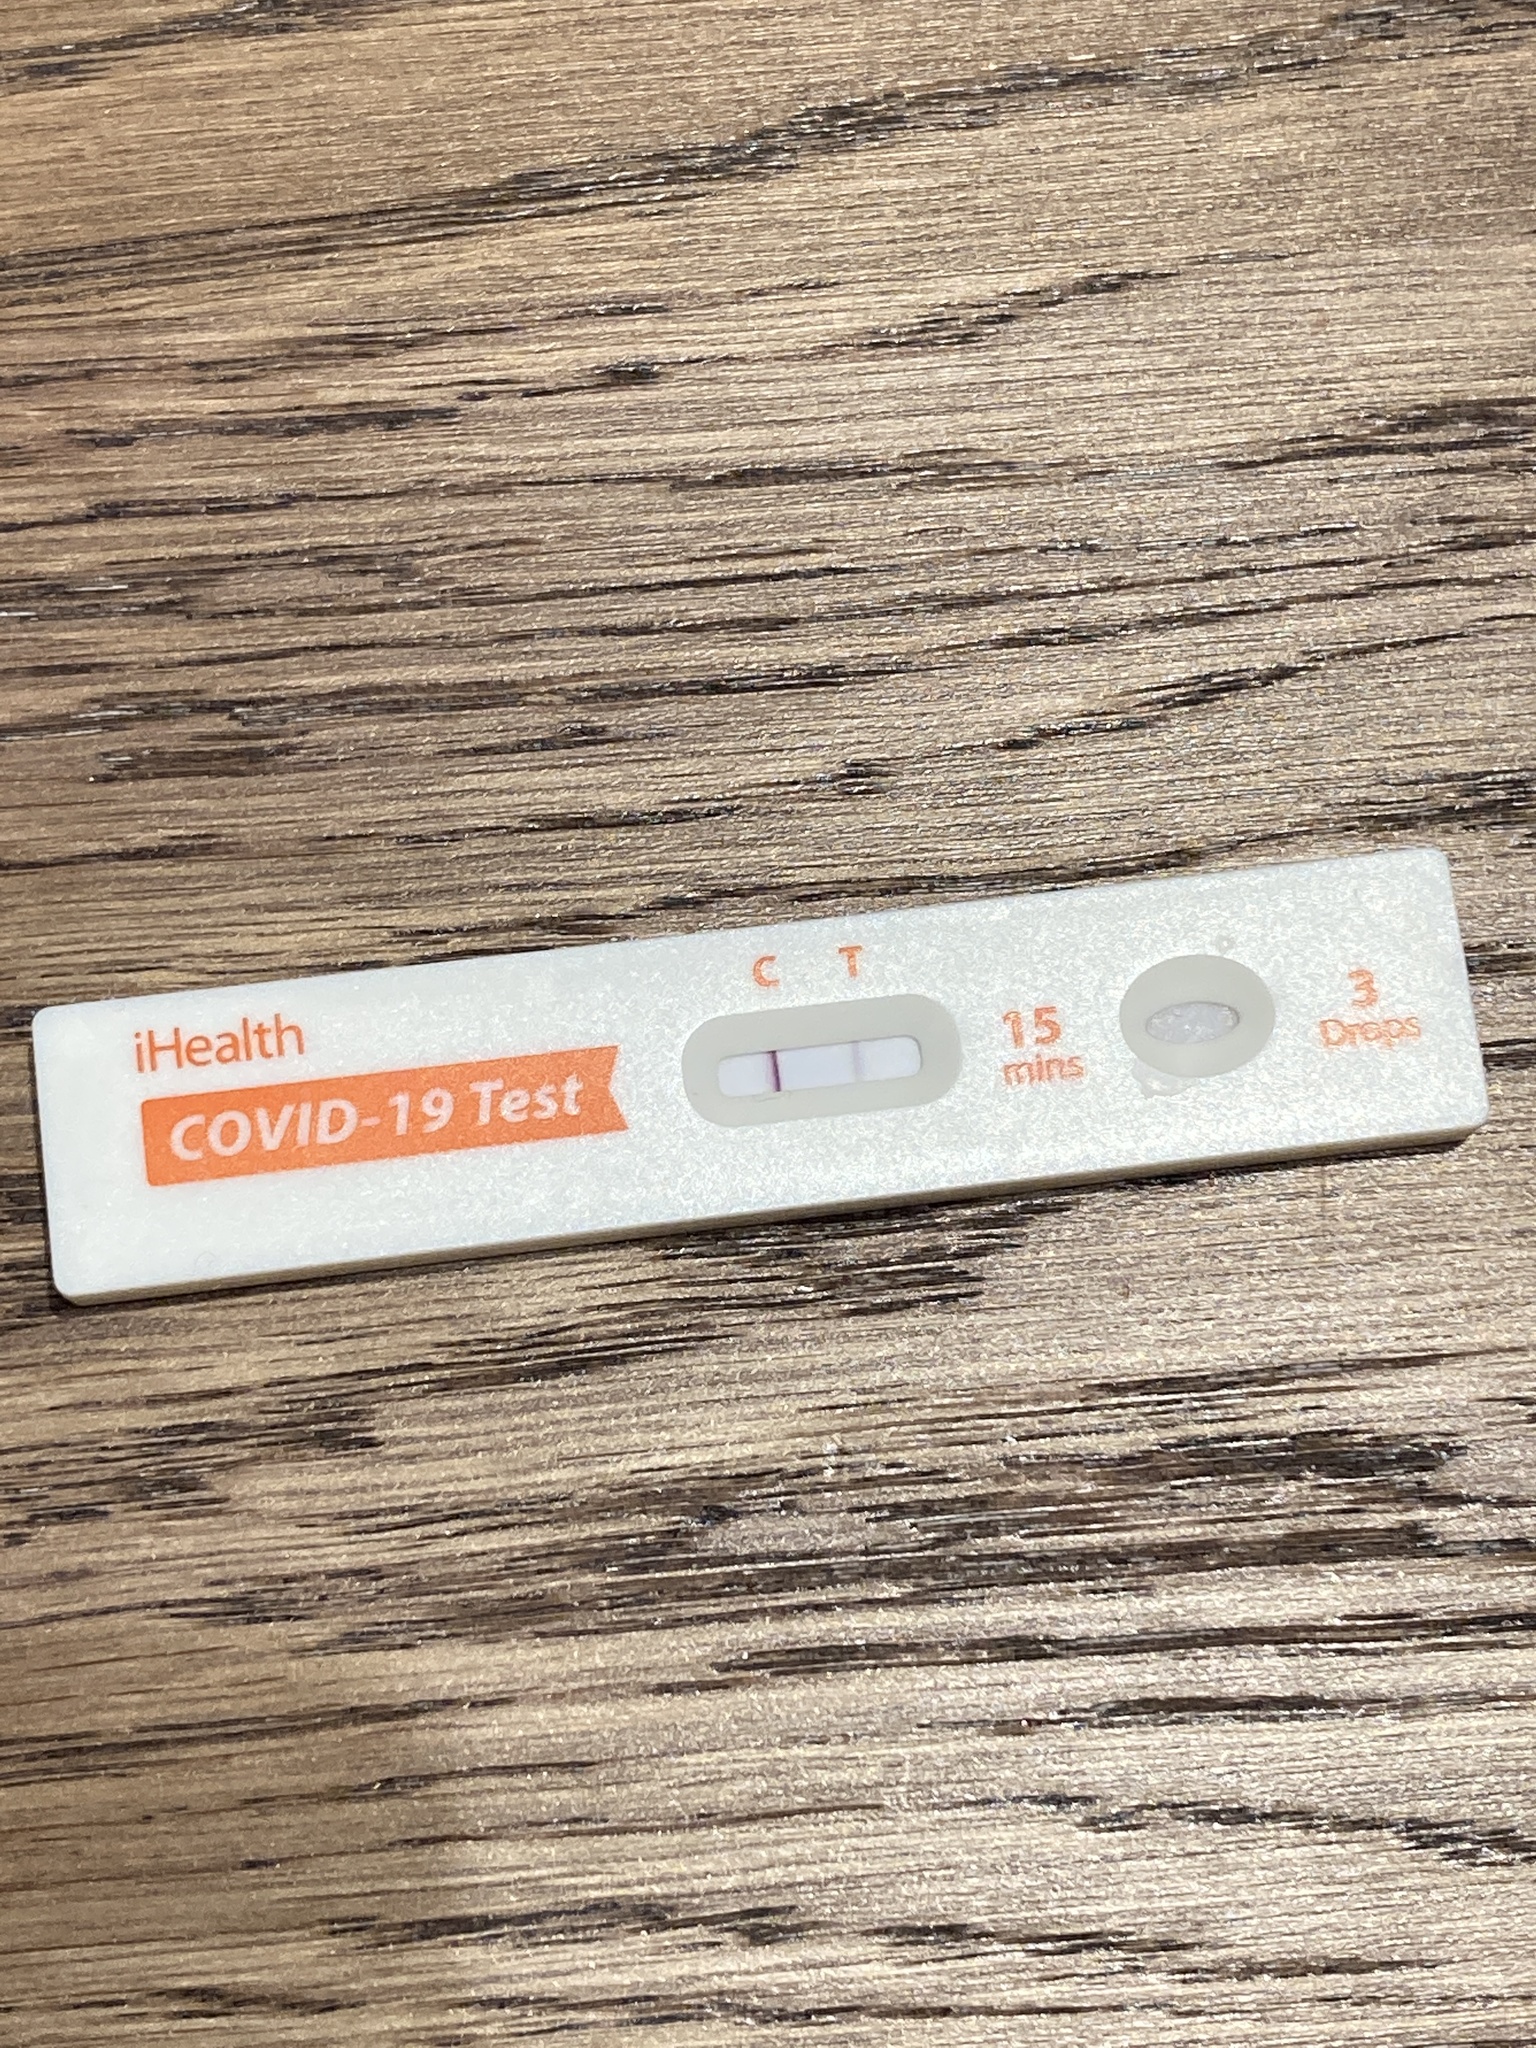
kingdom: Viruses
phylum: Pisuviricota
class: Pisoniviricetes
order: Nidovirales
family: Coronaviridae
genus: Betacoronavirus
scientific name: Betacoronavirus
